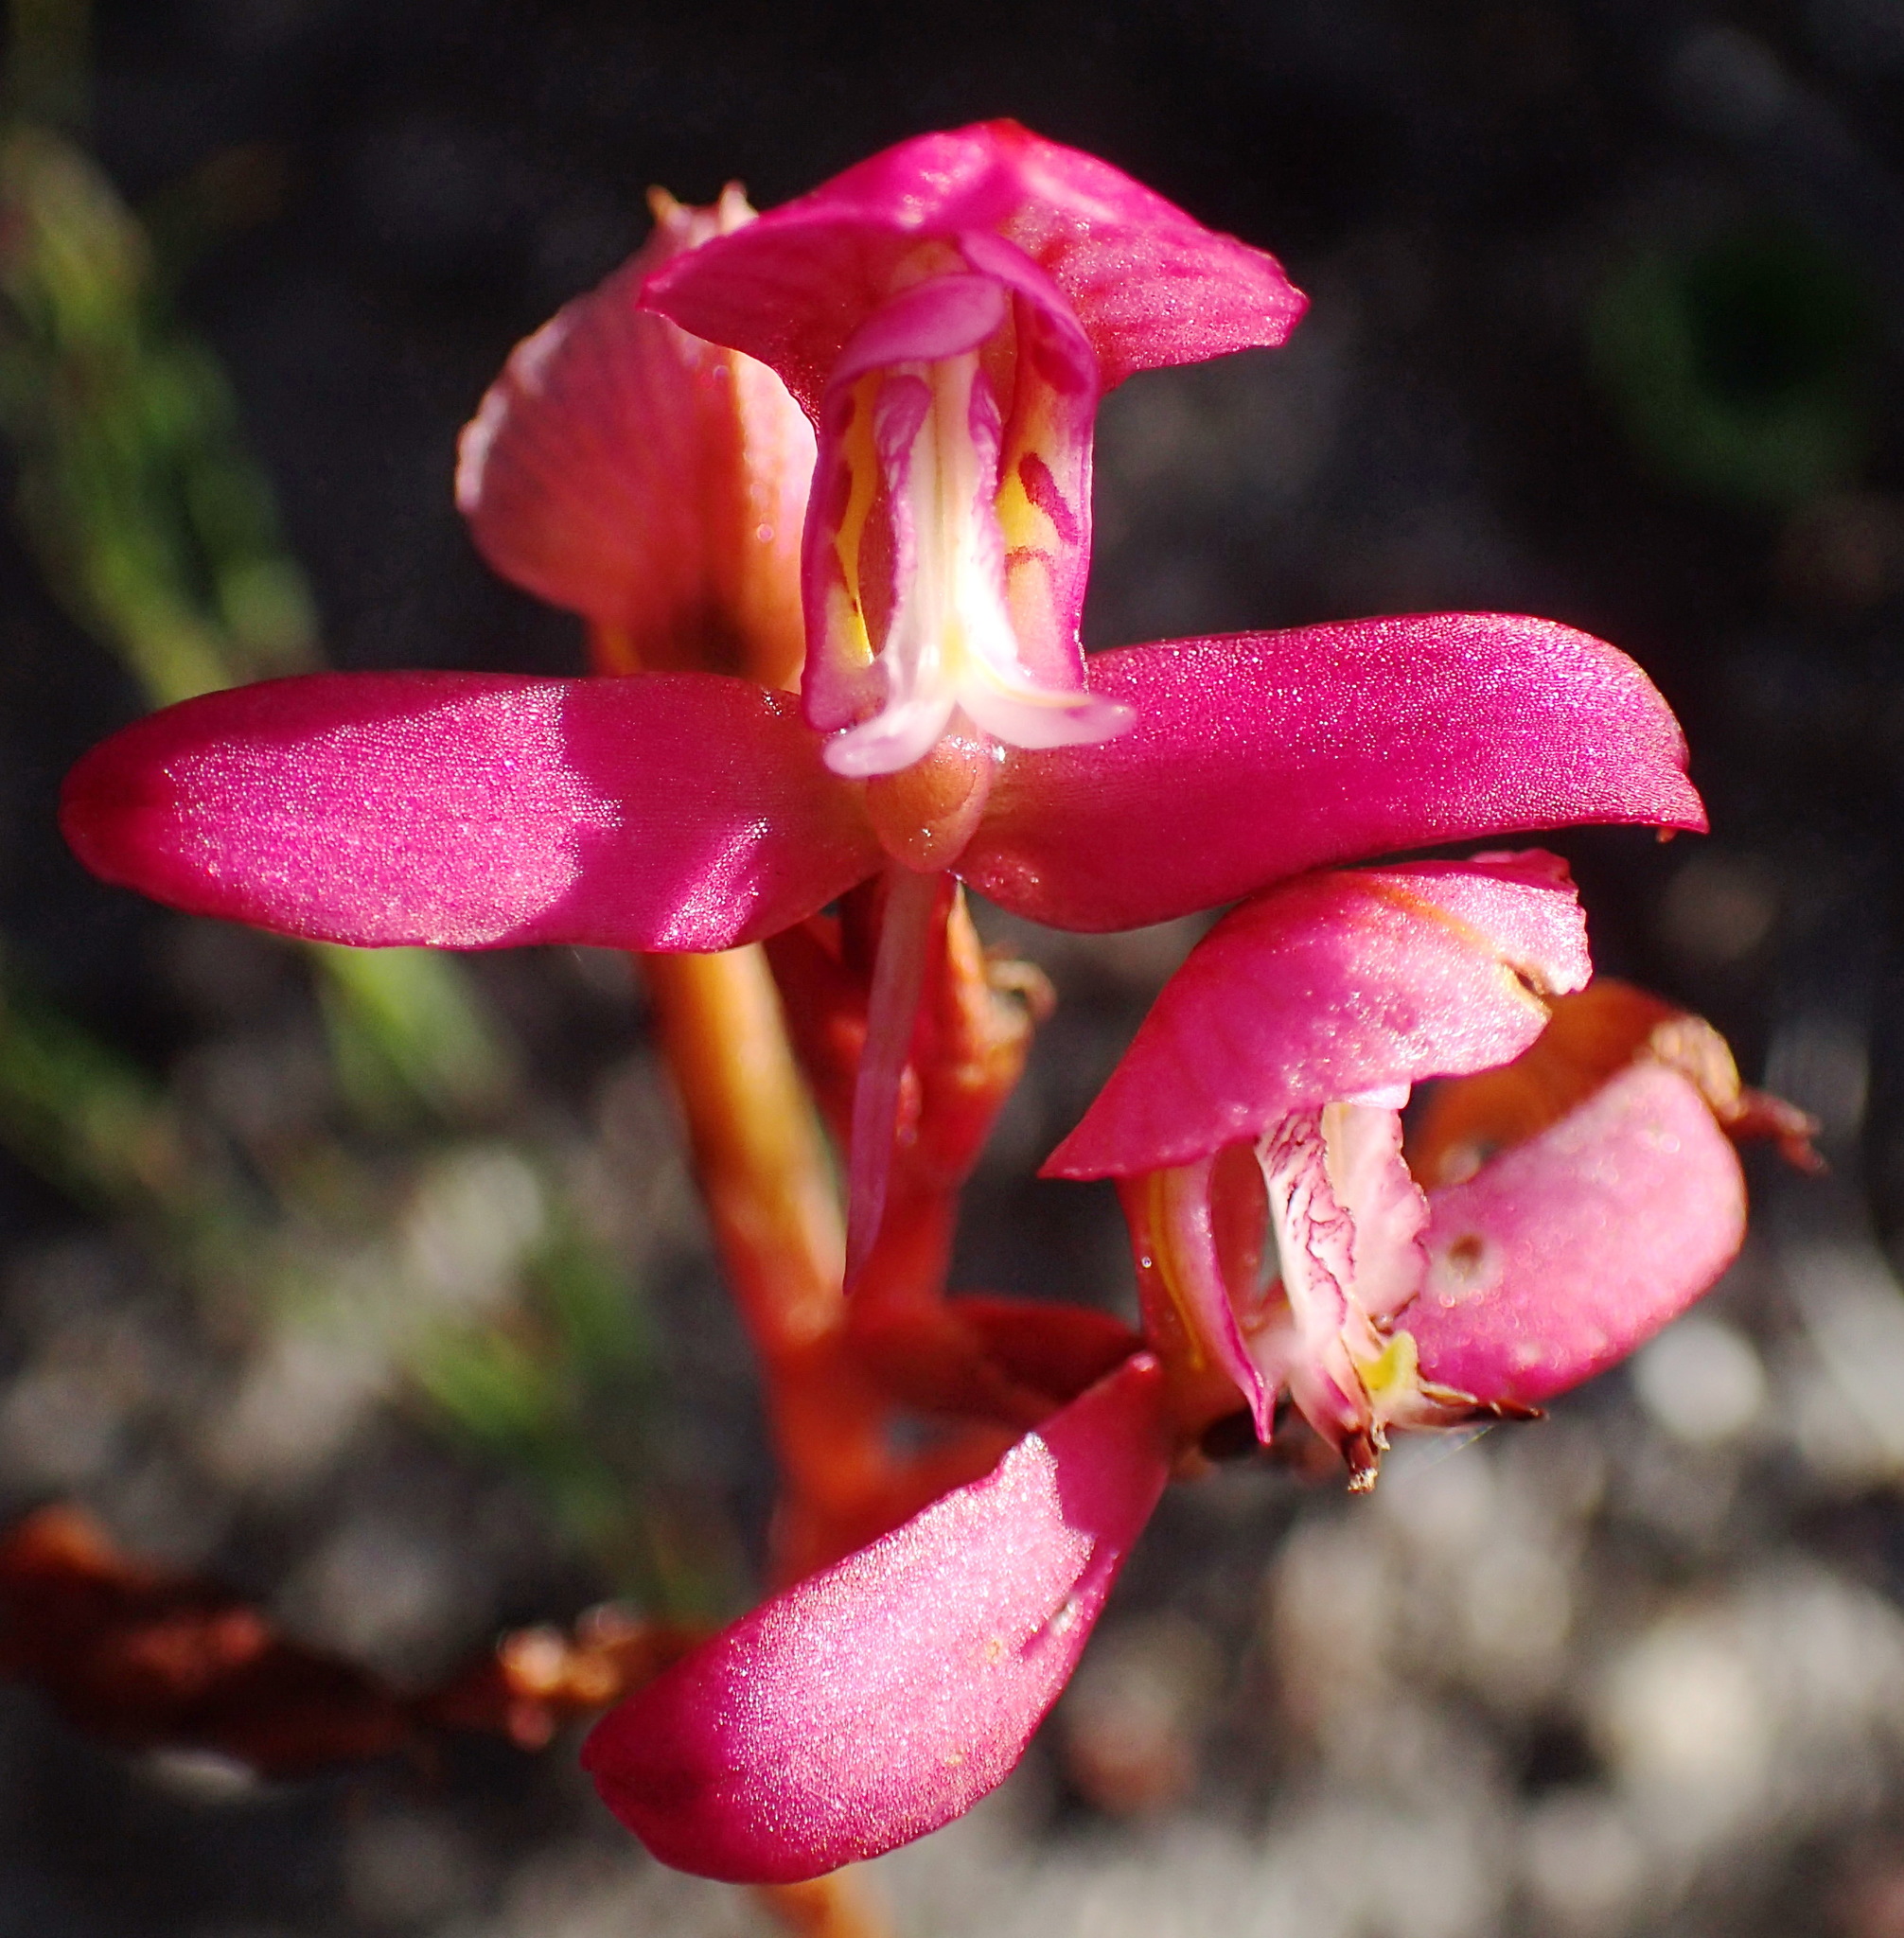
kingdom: Plantae
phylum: Tracheophyta
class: Liliopsida
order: Asparagales
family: Orchidaceae
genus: Disa
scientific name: Disa filicornis
